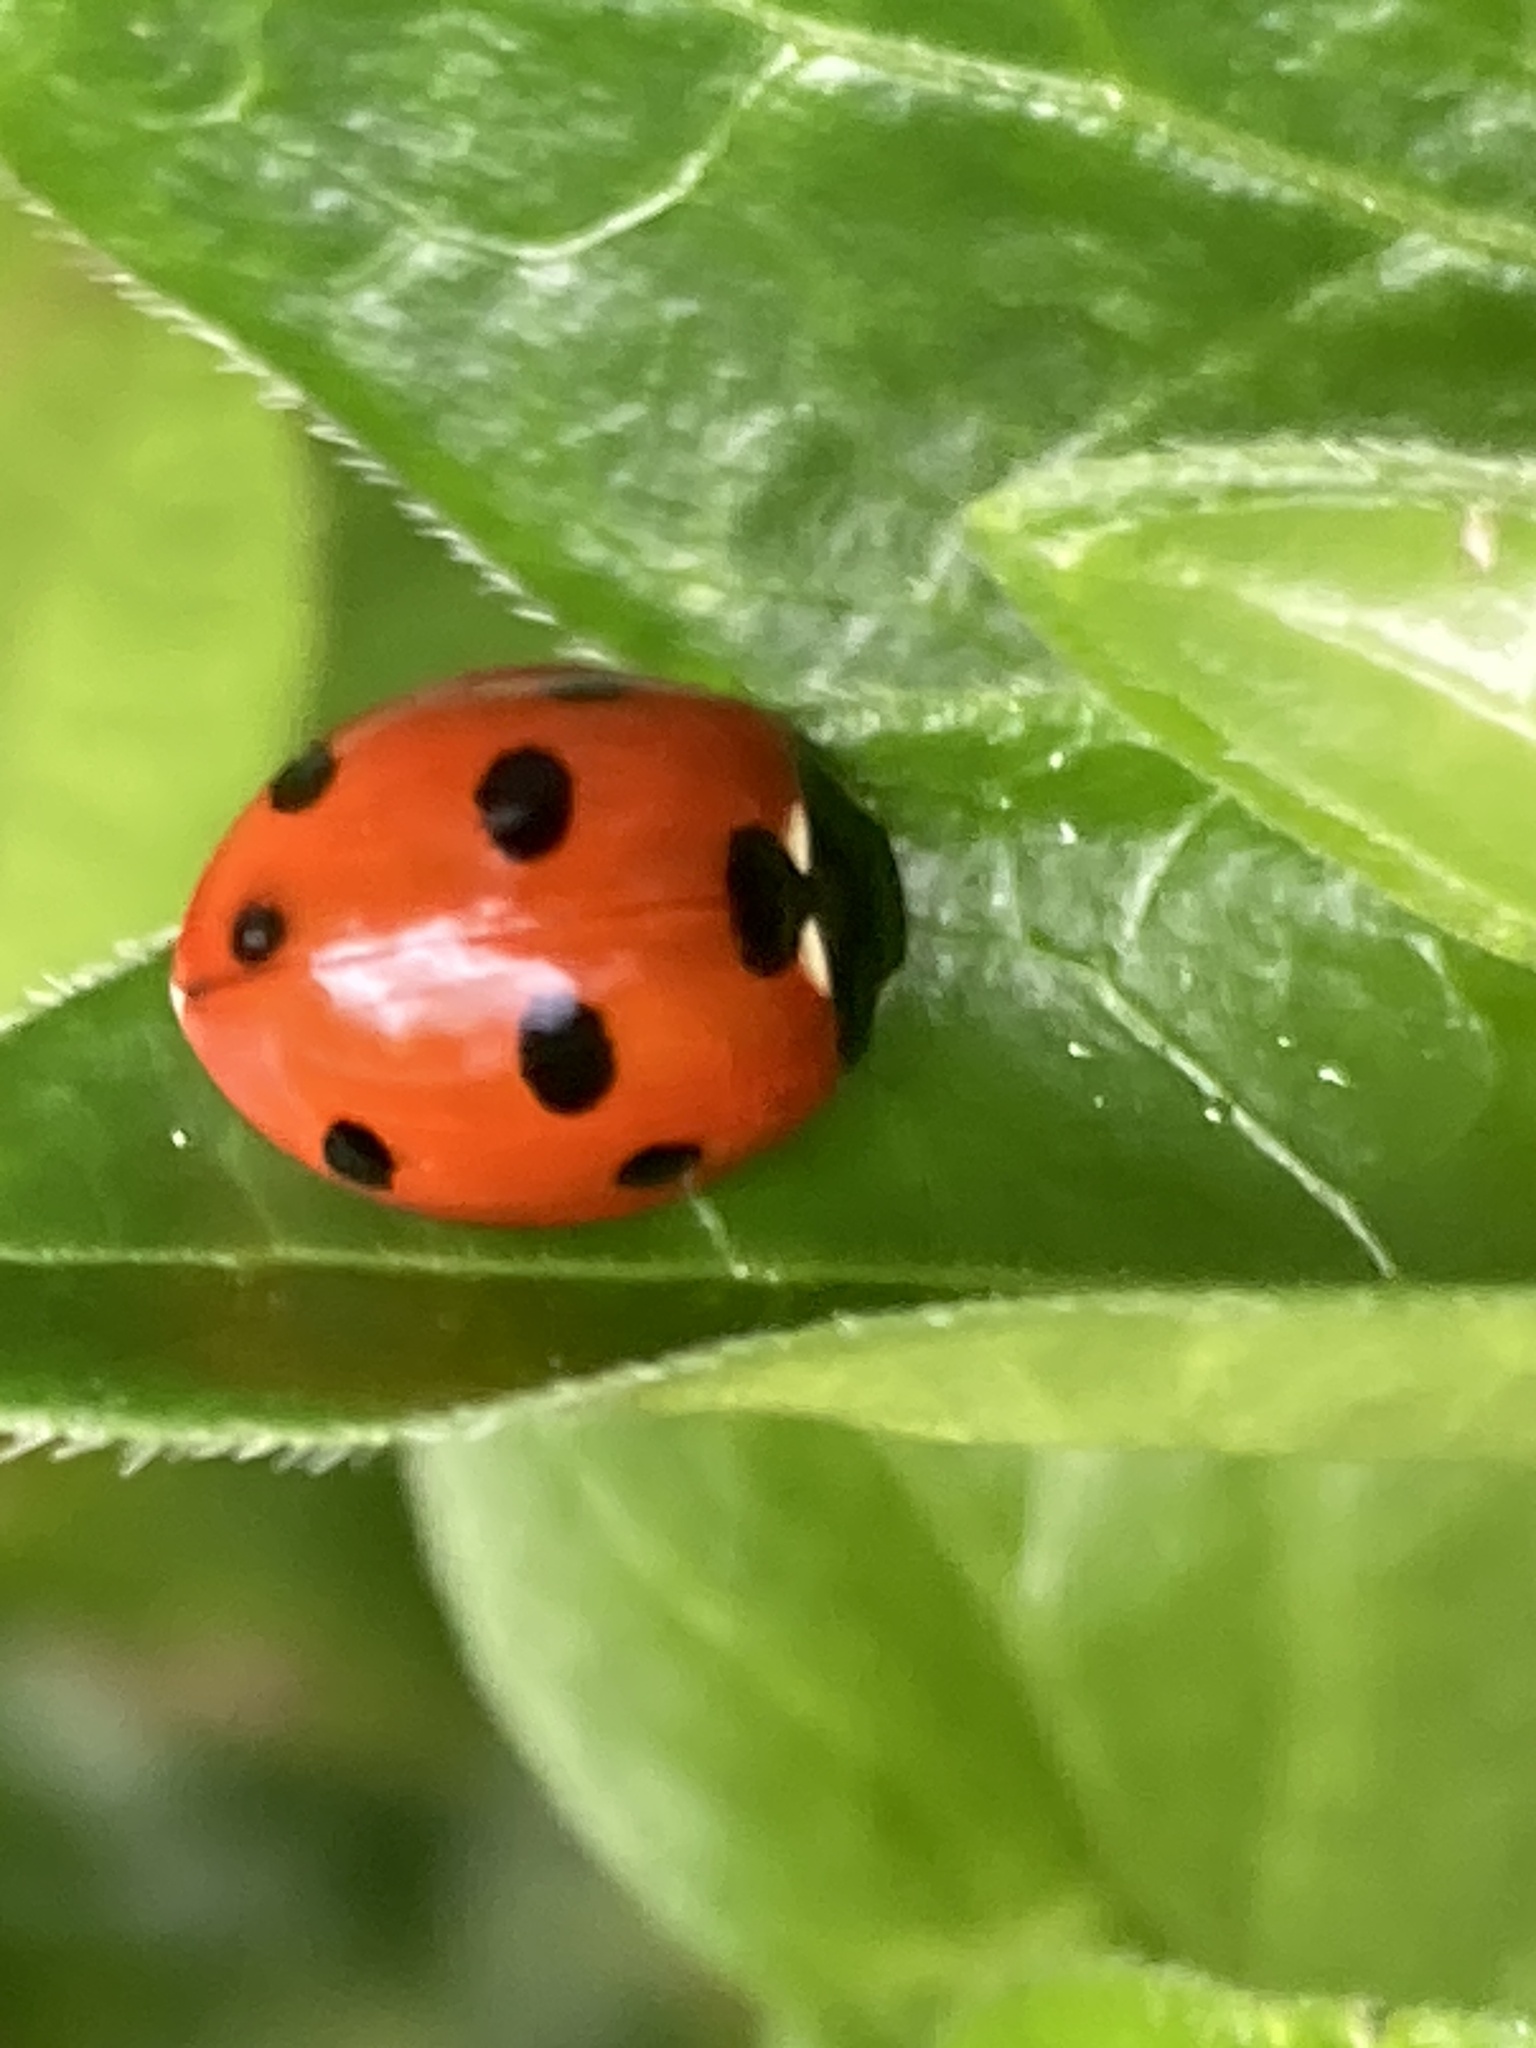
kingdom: Animalia
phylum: Arthropoda
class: Insecta
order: Coleoptera
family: Coccinellidae
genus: Coccinella
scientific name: Coccinella septempunctata
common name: Sevenspotted lady beetle
